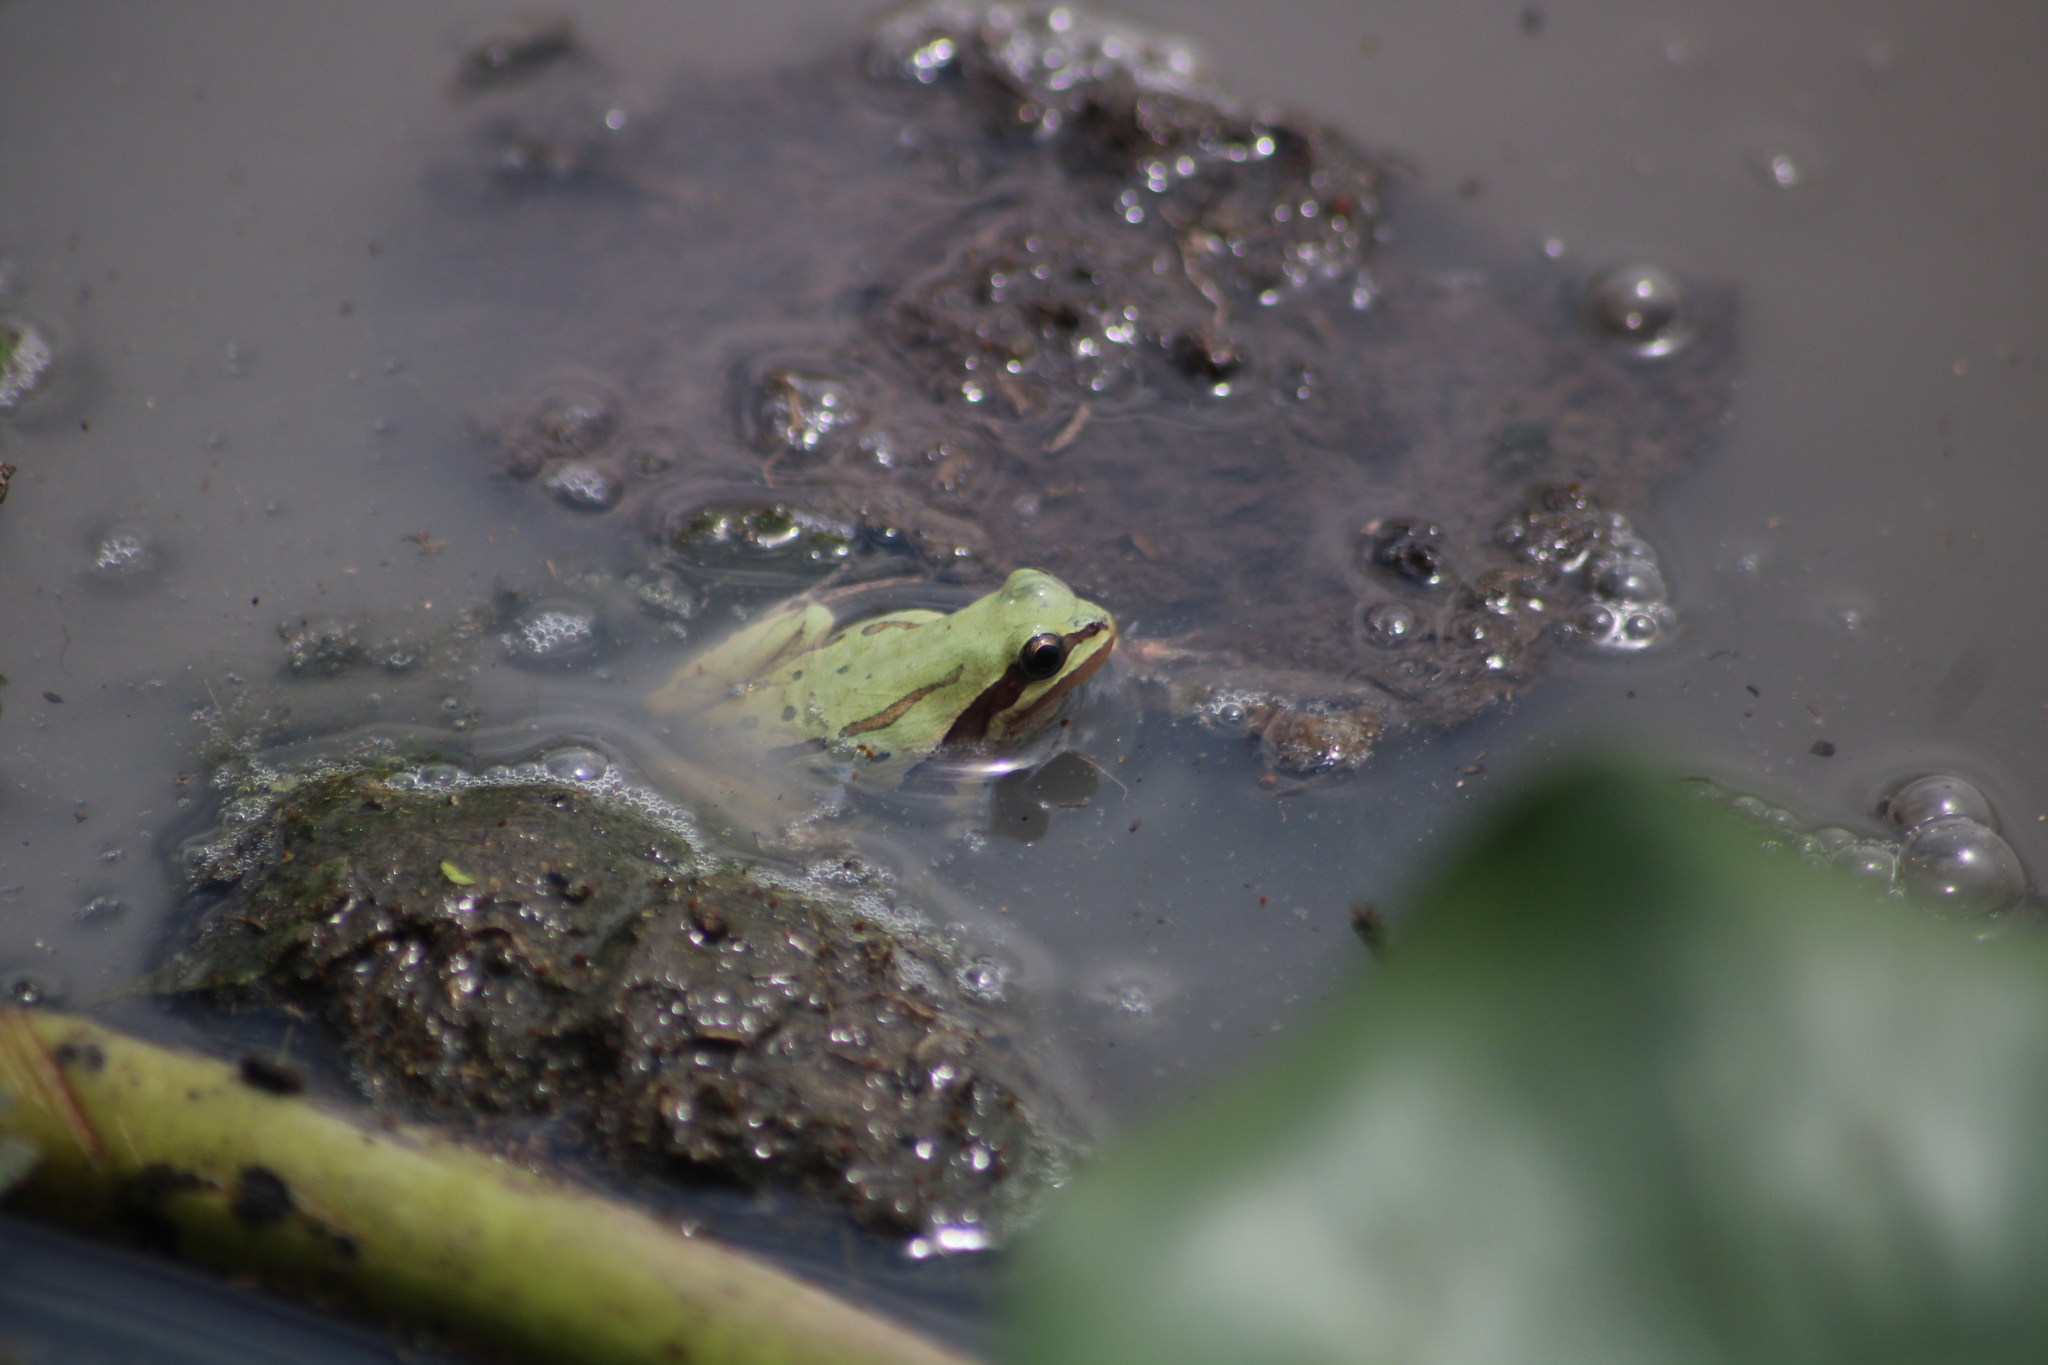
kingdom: Animalia
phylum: Chordata
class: Amphibia
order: Anura
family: Hylidae
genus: Dryophytes
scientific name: Dryophytes eximius
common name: Mountain treefrog
